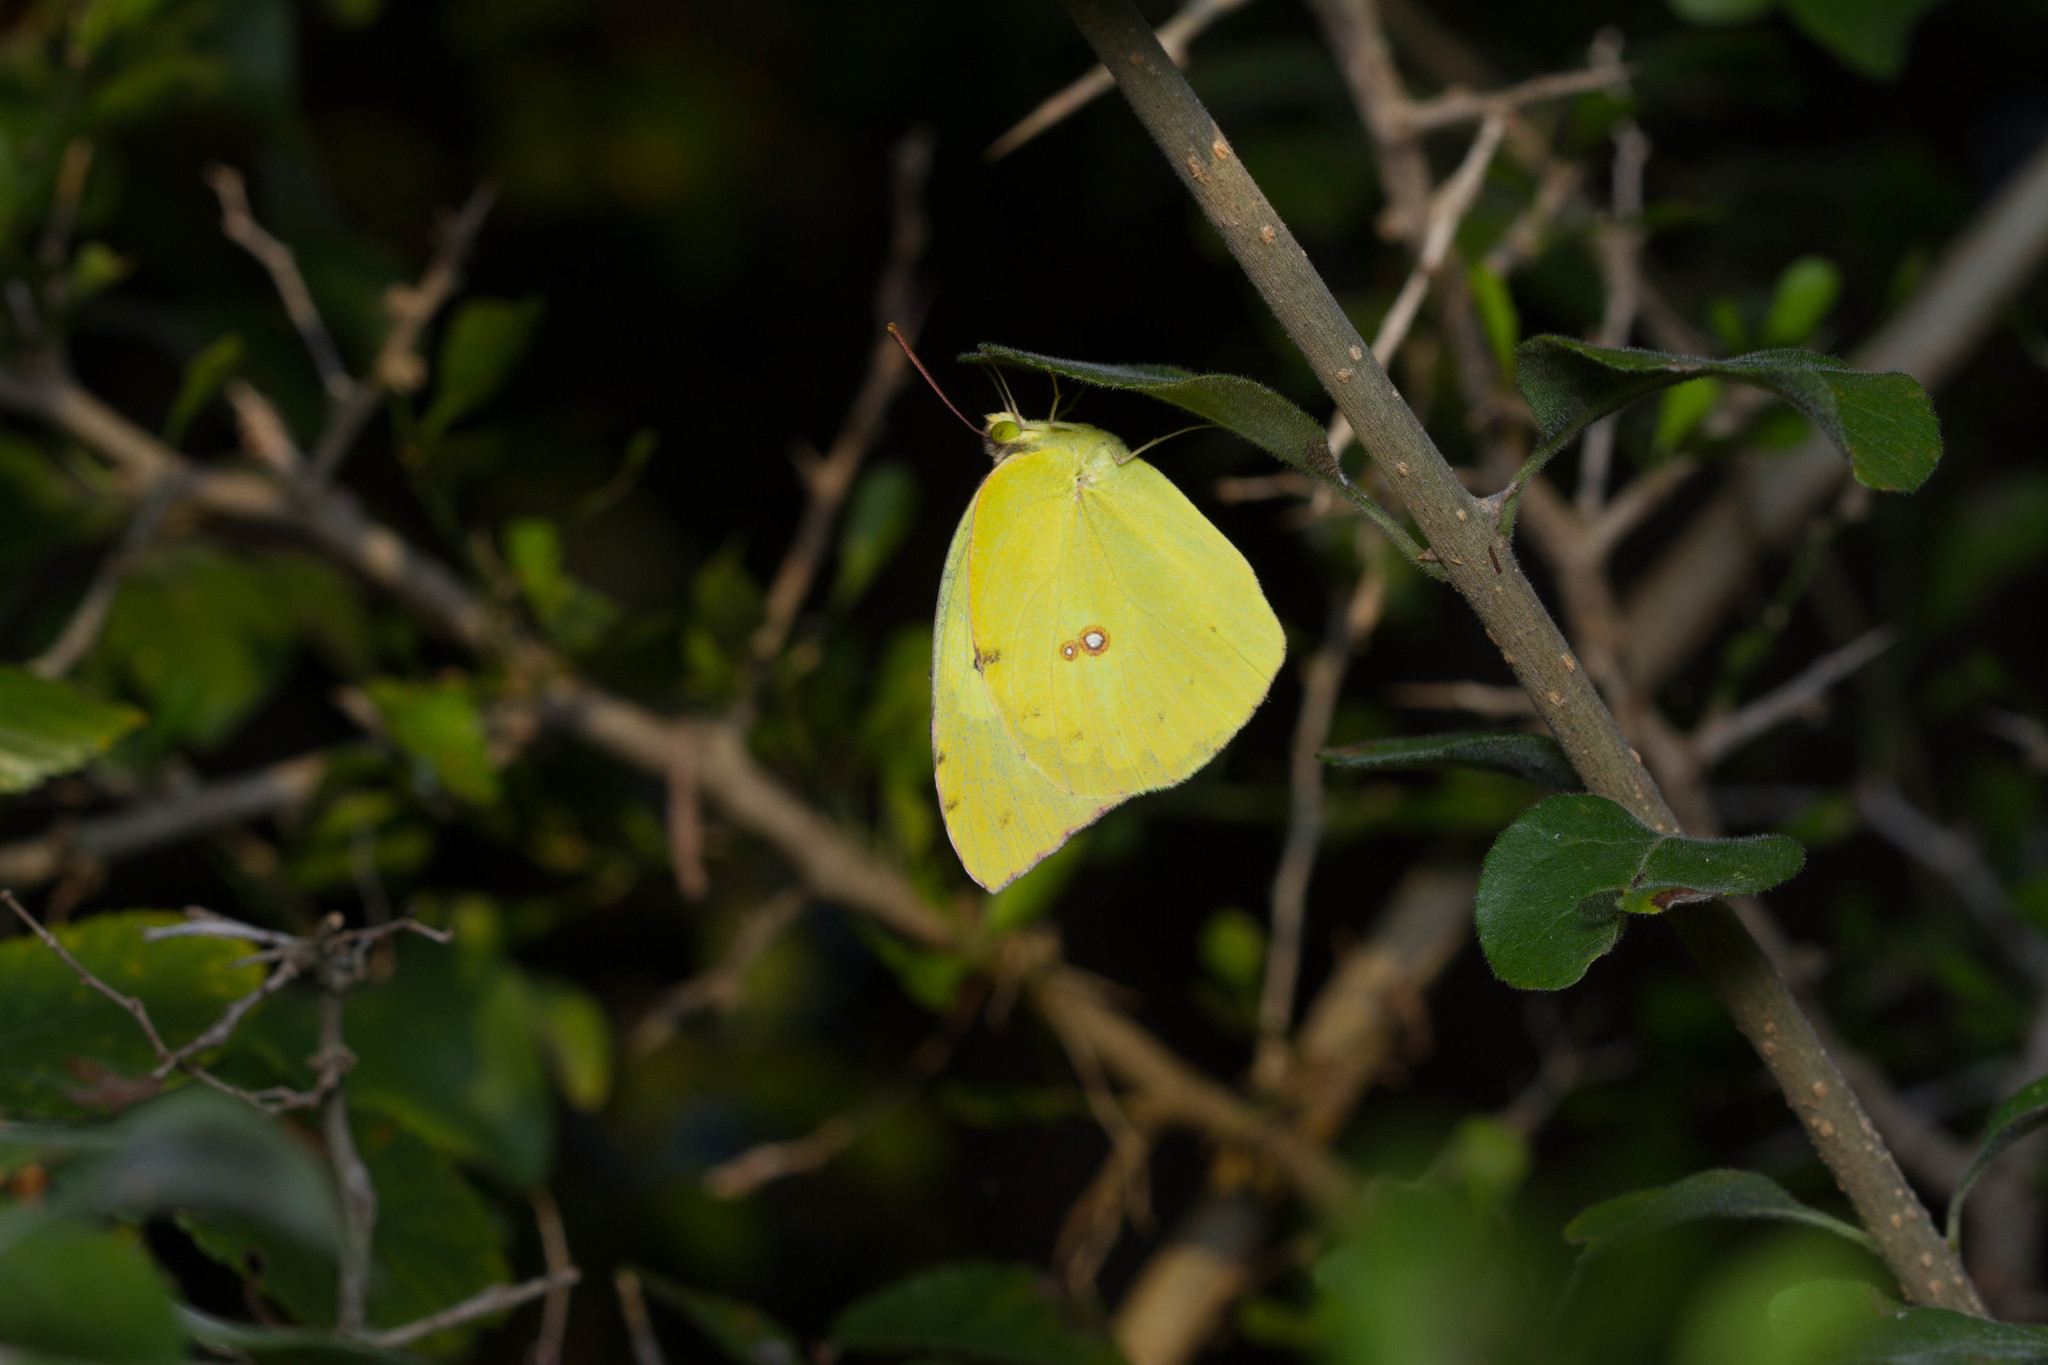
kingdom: Animalia
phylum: Arthropoda
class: Insecta
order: Lepidoptera
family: Pieridae
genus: Phoebis
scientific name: Phoebis sennae
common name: Cloudless sulphur
